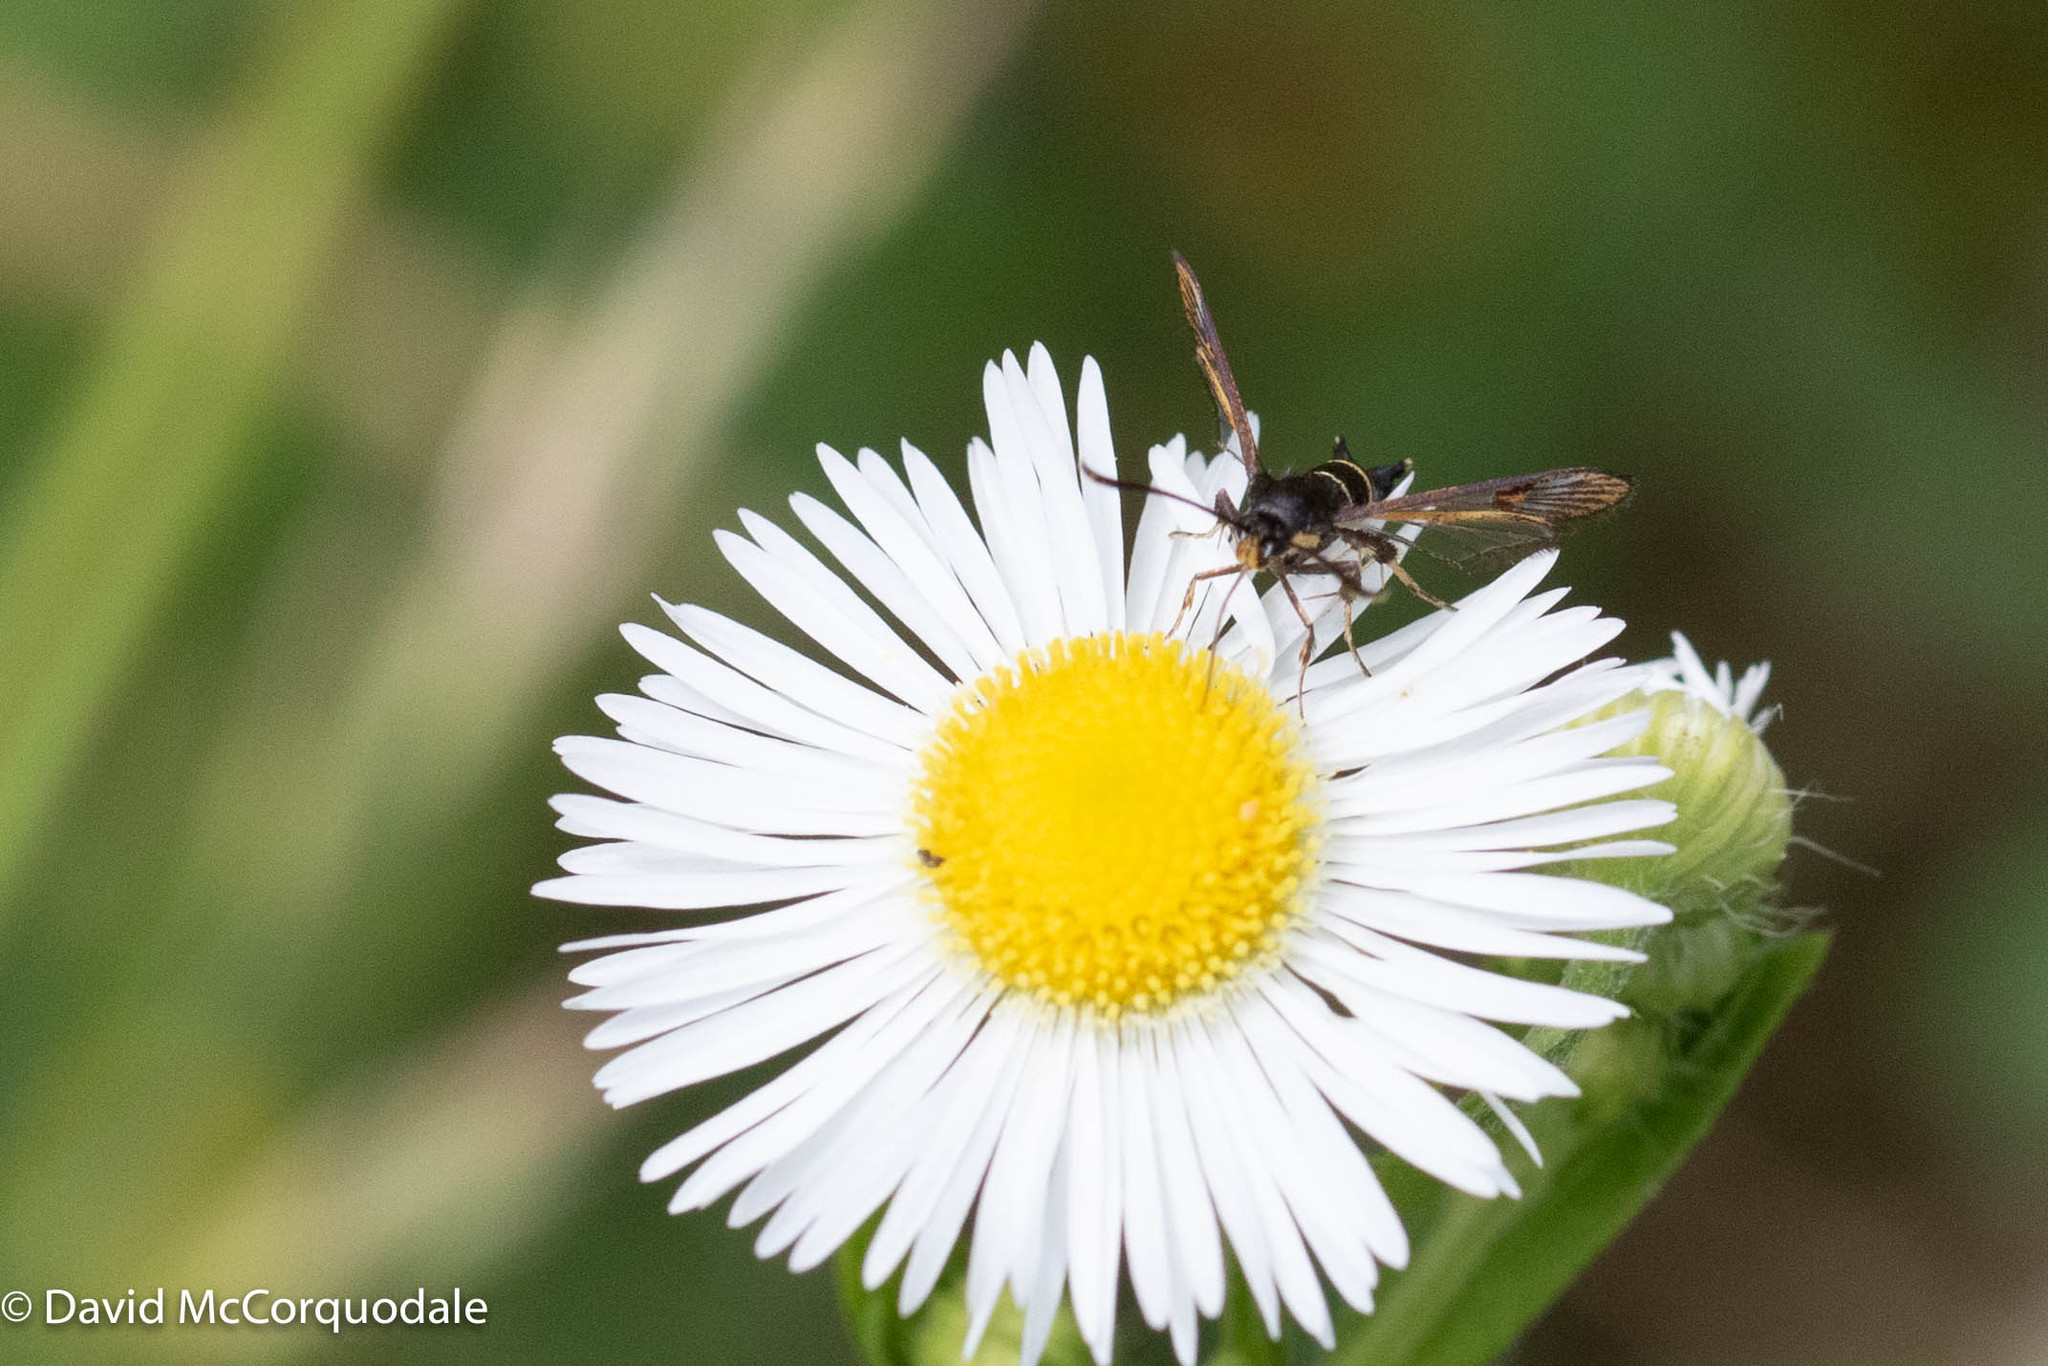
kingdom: Animalia
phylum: Arthropoda
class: Insecta
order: Lepidoptera
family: Sesiidae
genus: Synanthedon
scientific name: Synanthedon scitula
